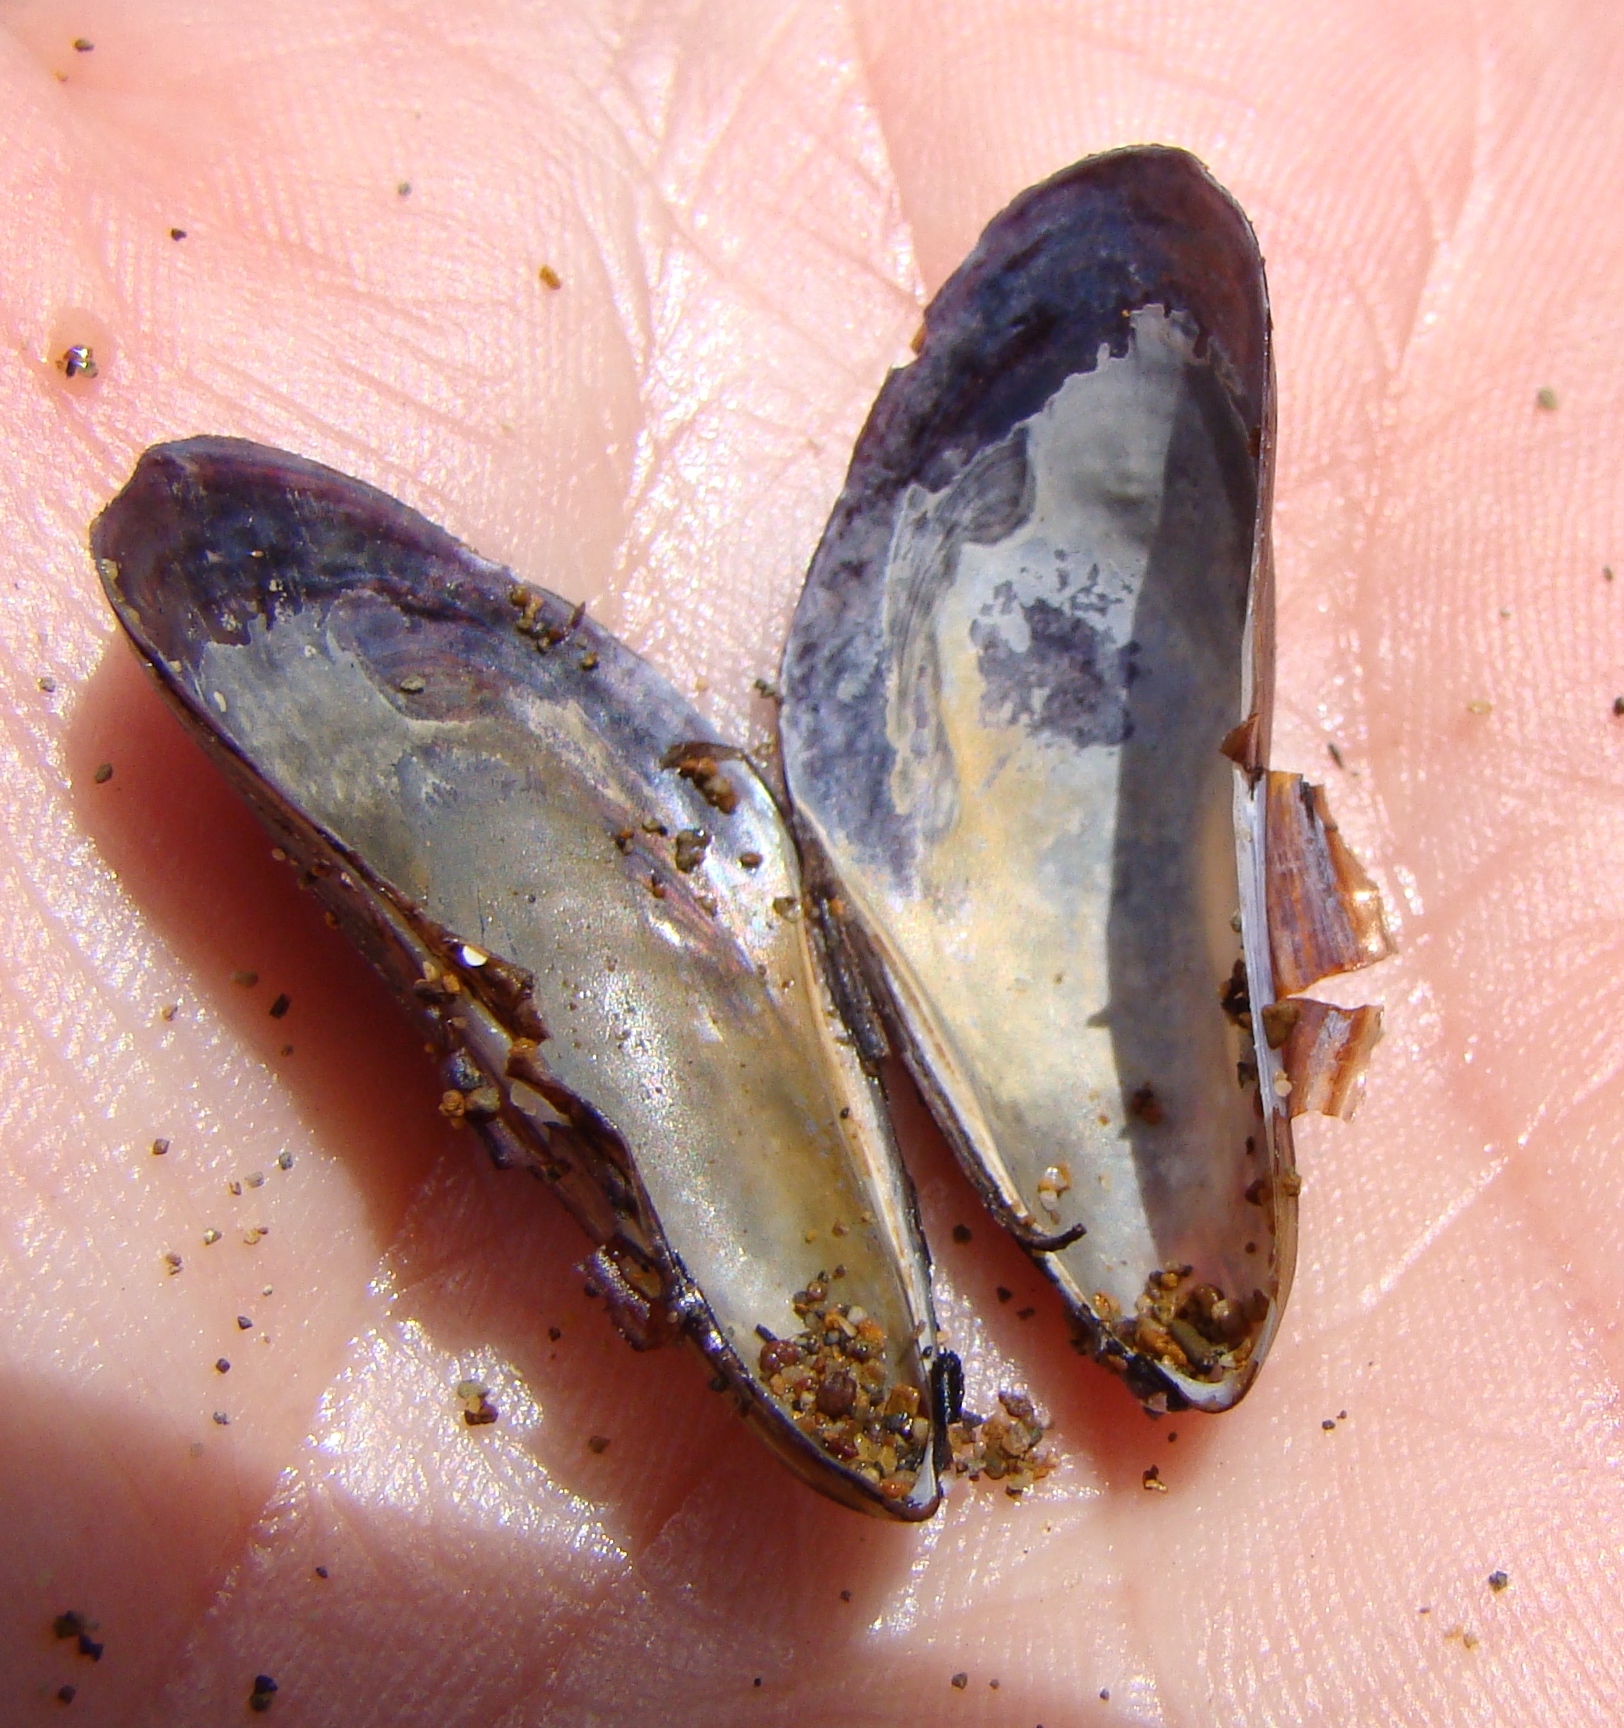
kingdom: Animalia
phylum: Mollusca
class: Bivalvia
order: Mytilida
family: Mytilidae
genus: Xenostrobus
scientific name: Xenostrobus securis
